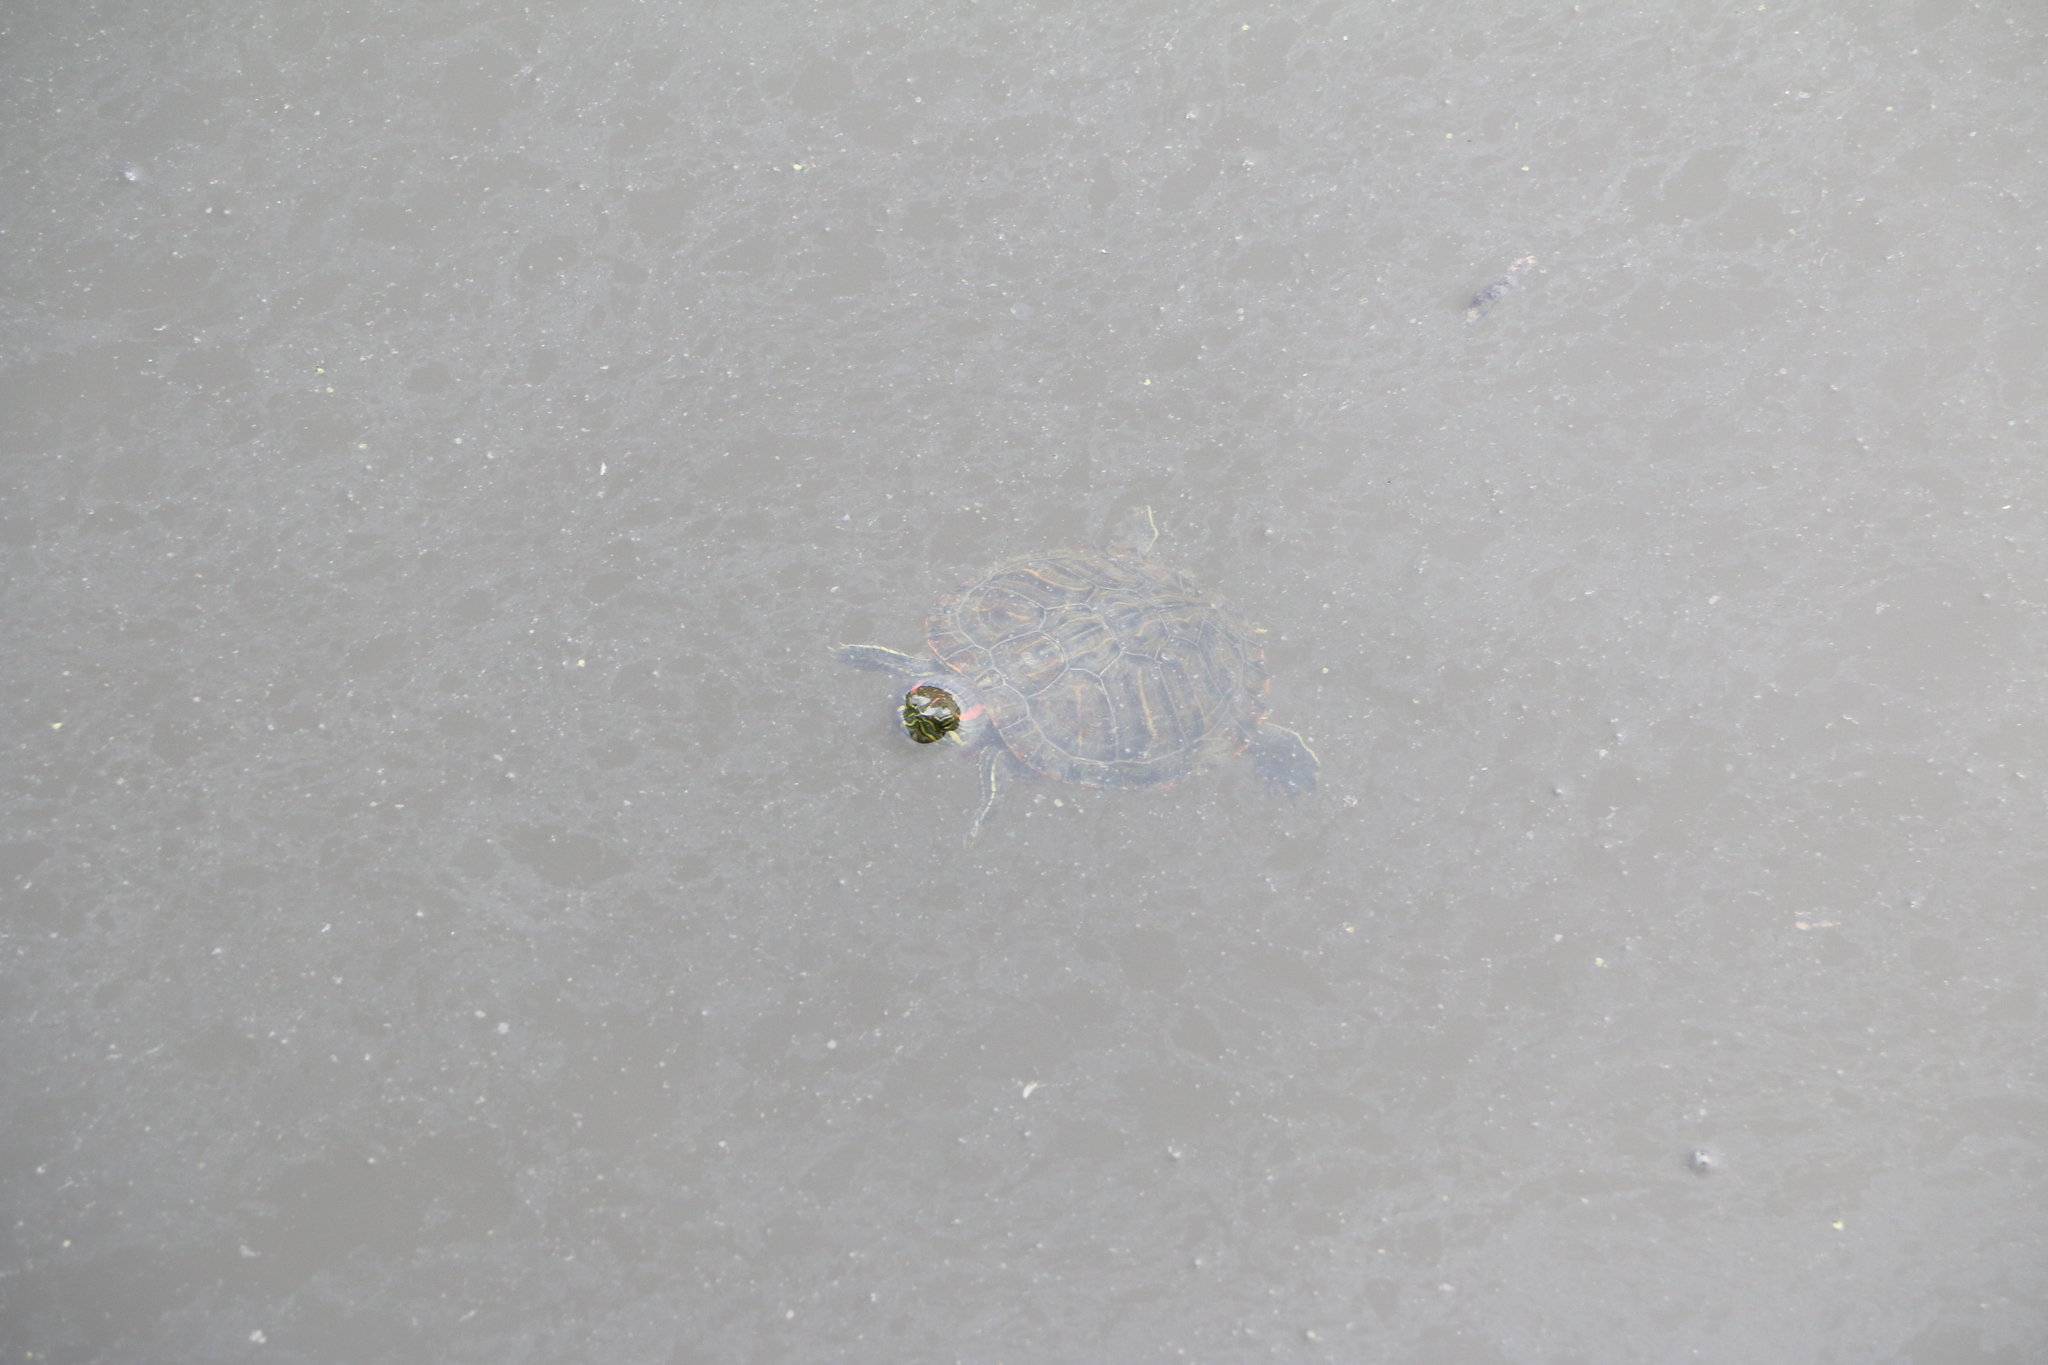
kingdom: Animalia
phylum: Chordata
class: Testudines
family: Emydidae
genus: Trachemys
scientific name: Trachemys scripta
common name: Slider
